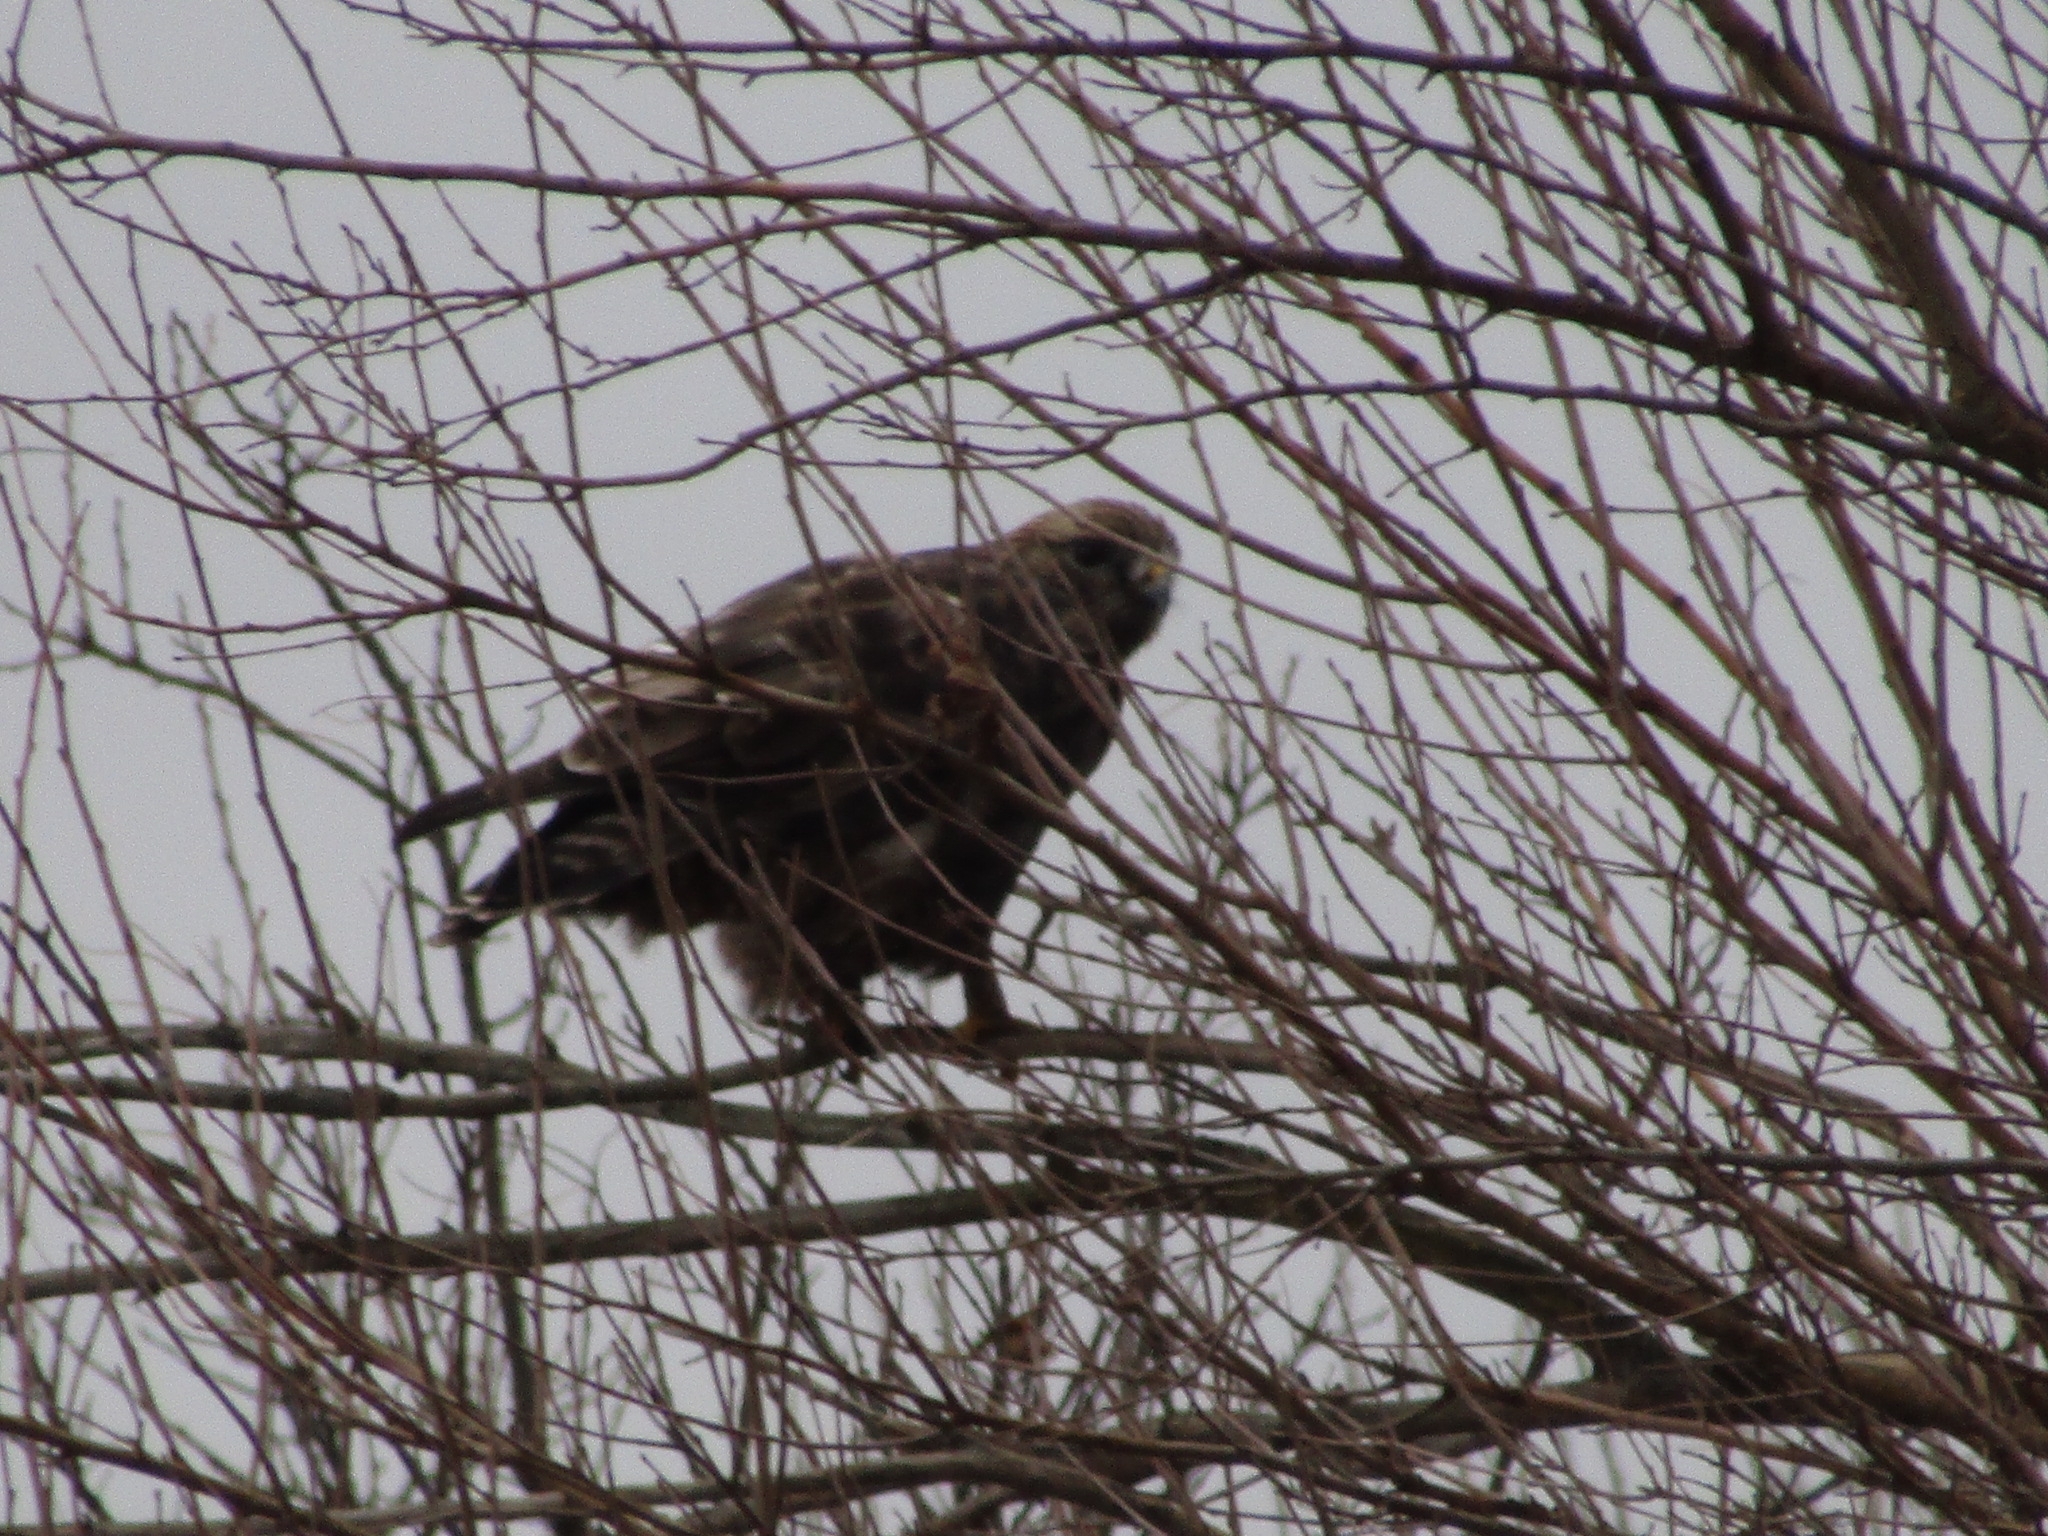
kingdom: Animalia
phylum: Chordata
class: Aves
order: Accipitriformes
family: Accipitridae
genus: Buteo
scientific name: Buteo lagopus
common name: Rough-legged buzzard
